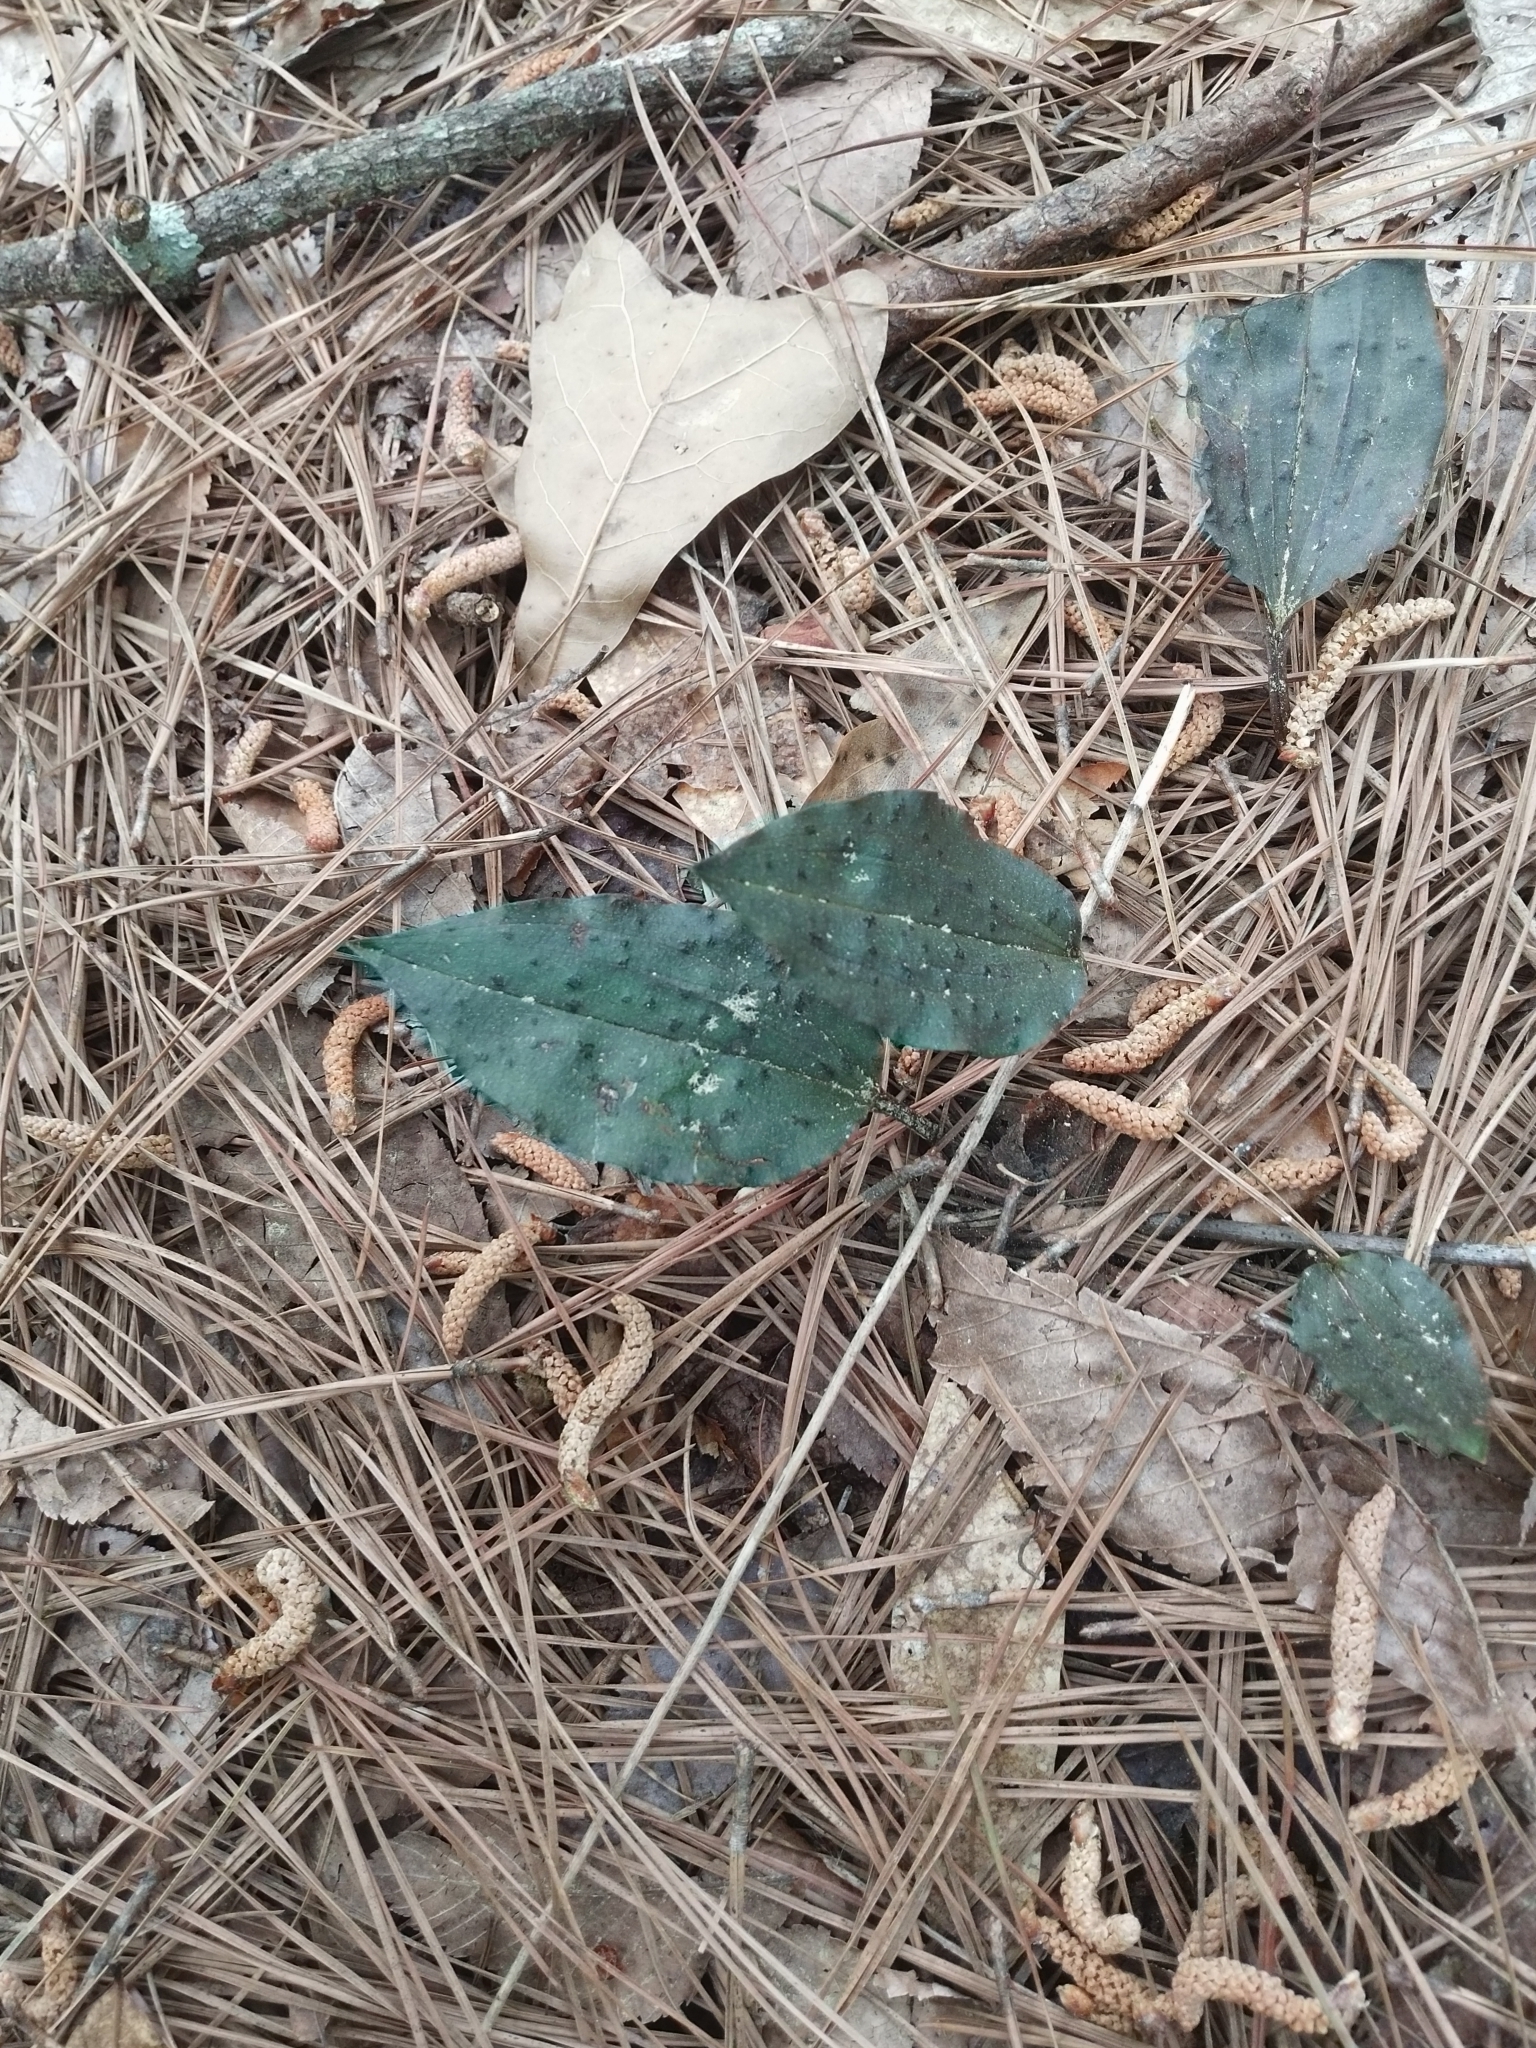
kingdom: Plantae
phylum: Tracheophyta
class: Liliopsida
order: Asparagales
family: Orchidaceae
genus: Tipularia
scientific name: Tipularia discolor
